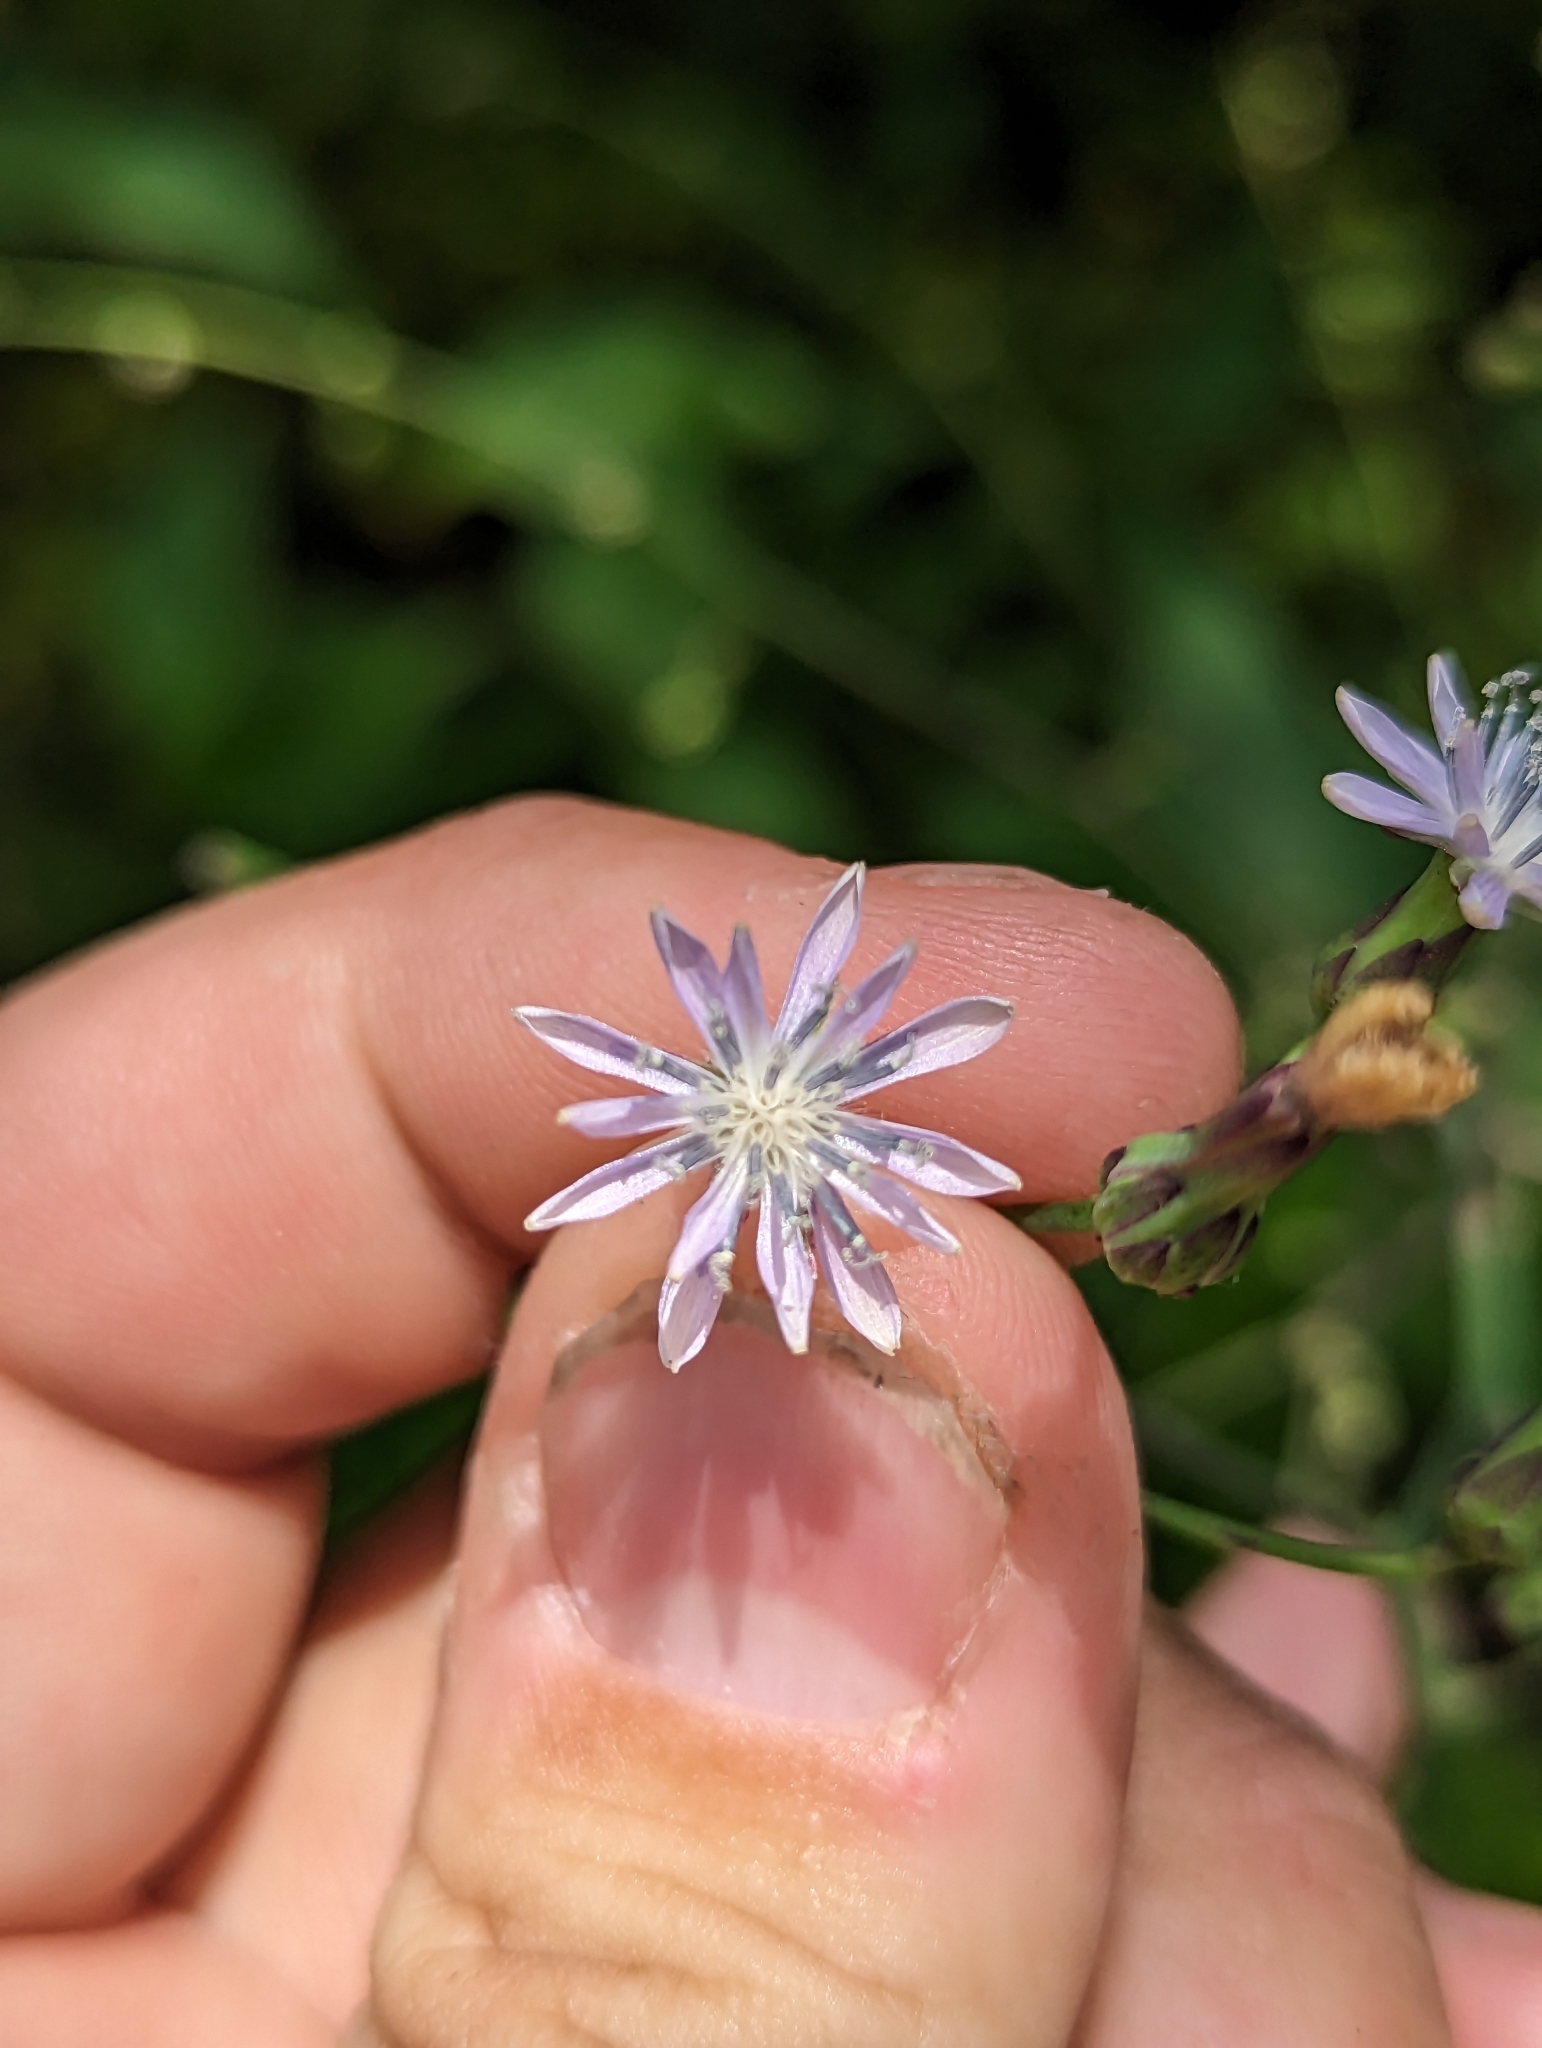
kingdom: Plantae
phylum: Tracheophyta
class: Magnoliopsida
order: Asterales
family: Asteraceae
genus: Lactuca
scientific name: Lactuca floridana
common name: Woodland lettuce
